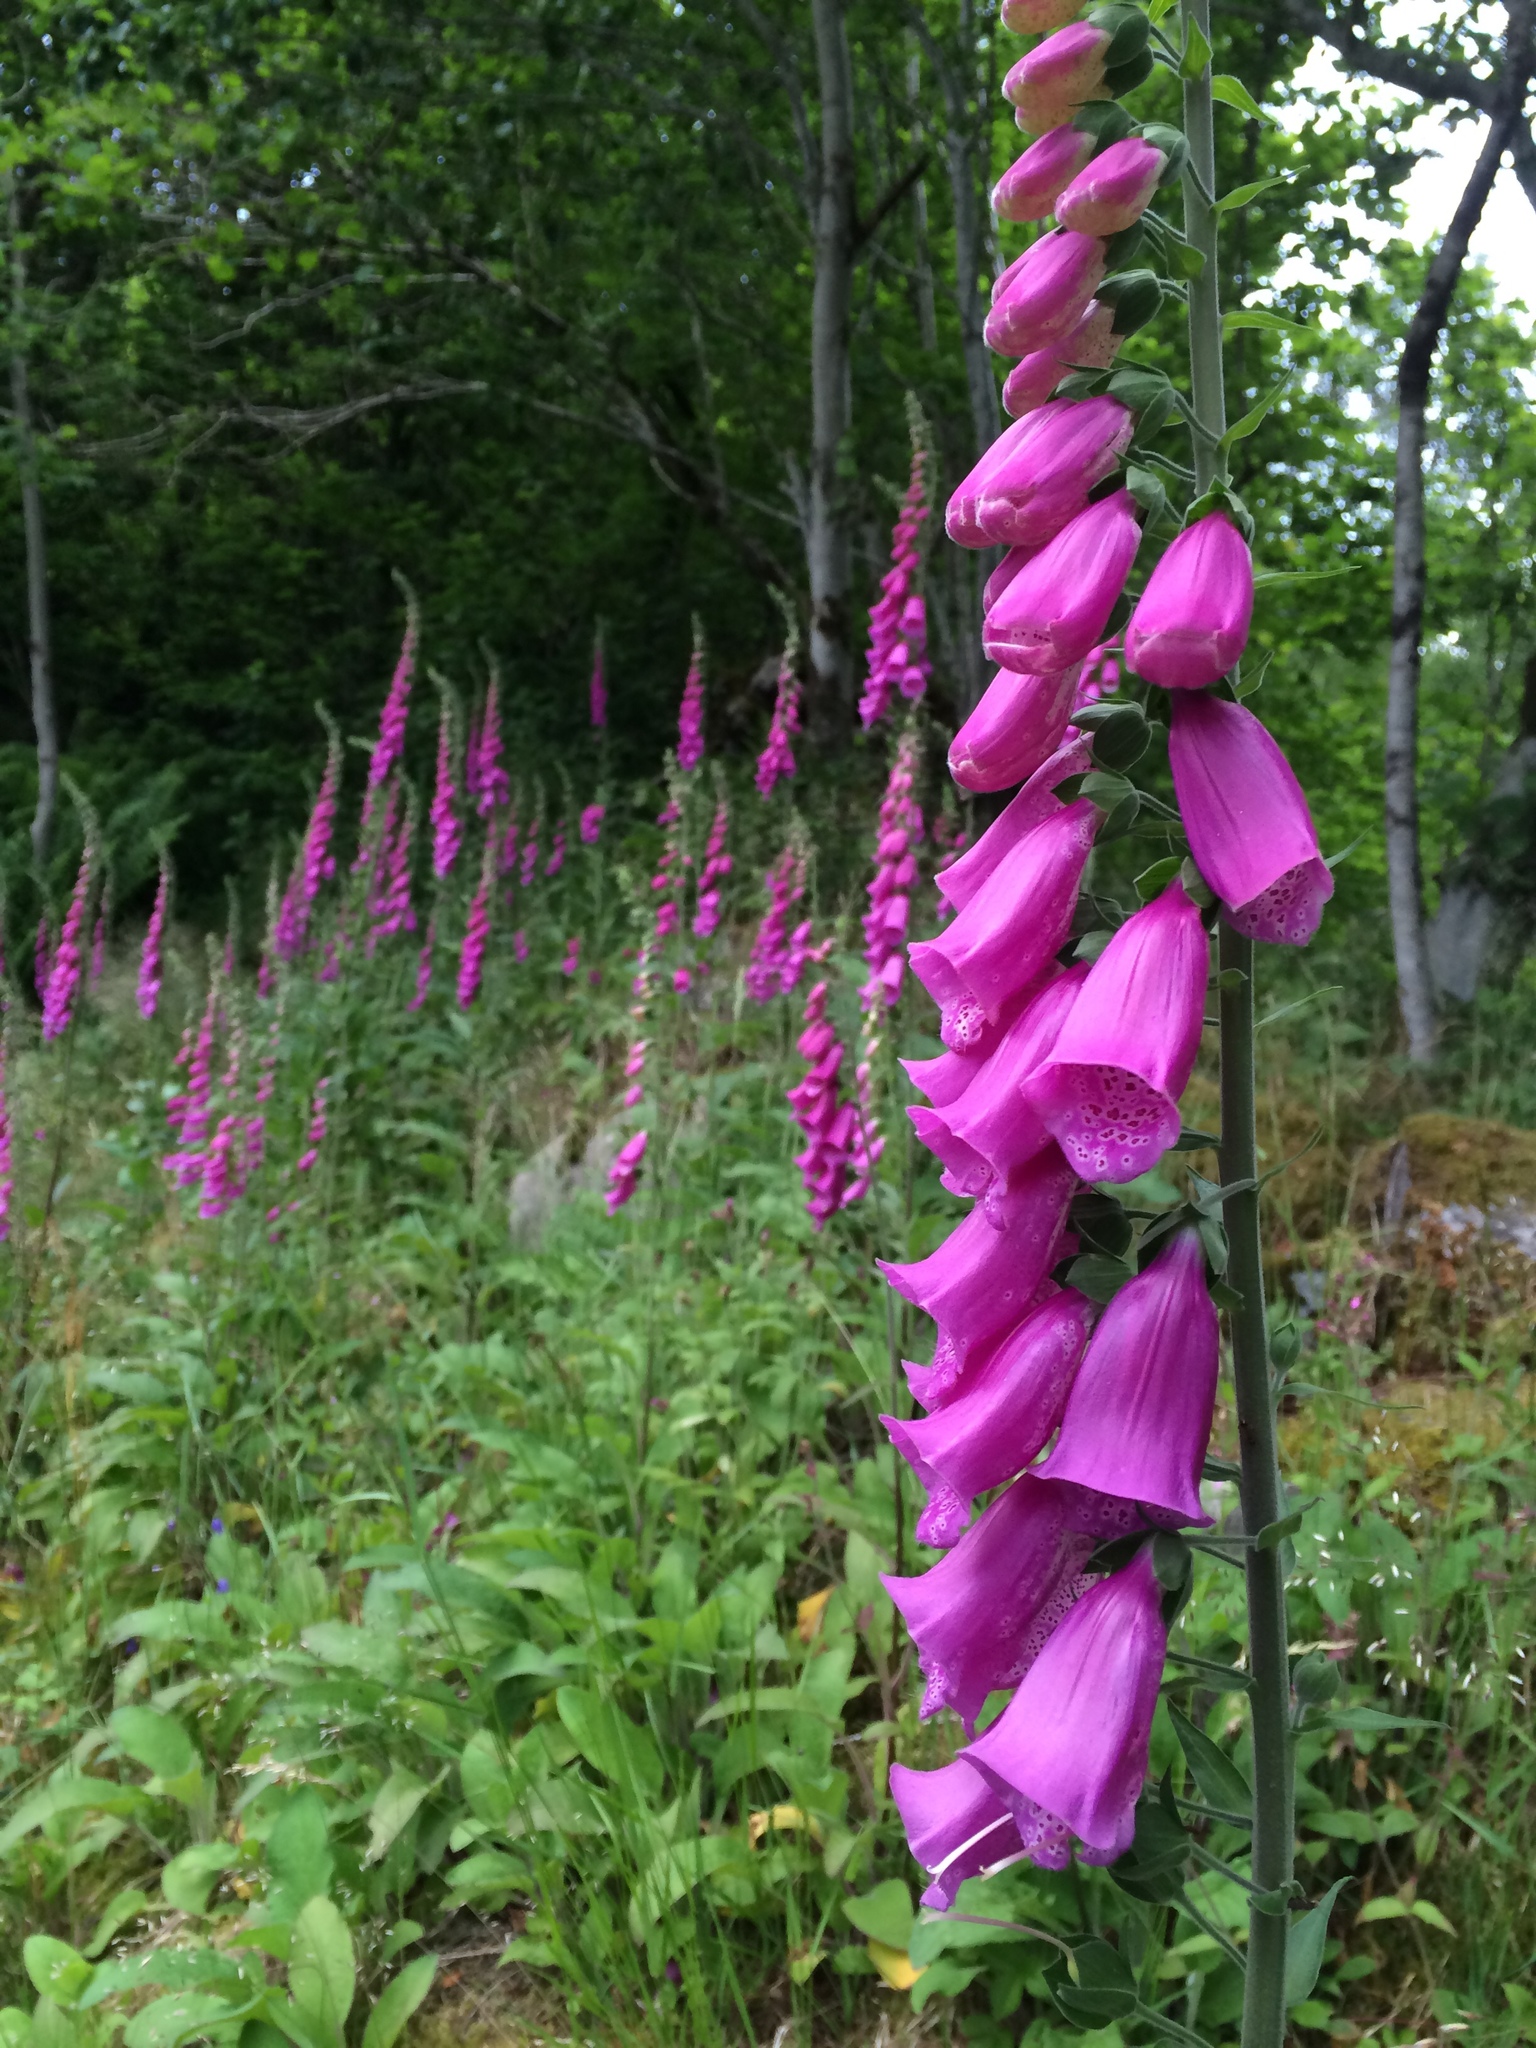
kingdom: Plantae
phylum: Tracheophyta
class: Magnoliopsida
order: Lamiales
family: Plantaginaceae
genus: Digitalis
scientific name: Digitalis purpurea
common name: Foxglove
